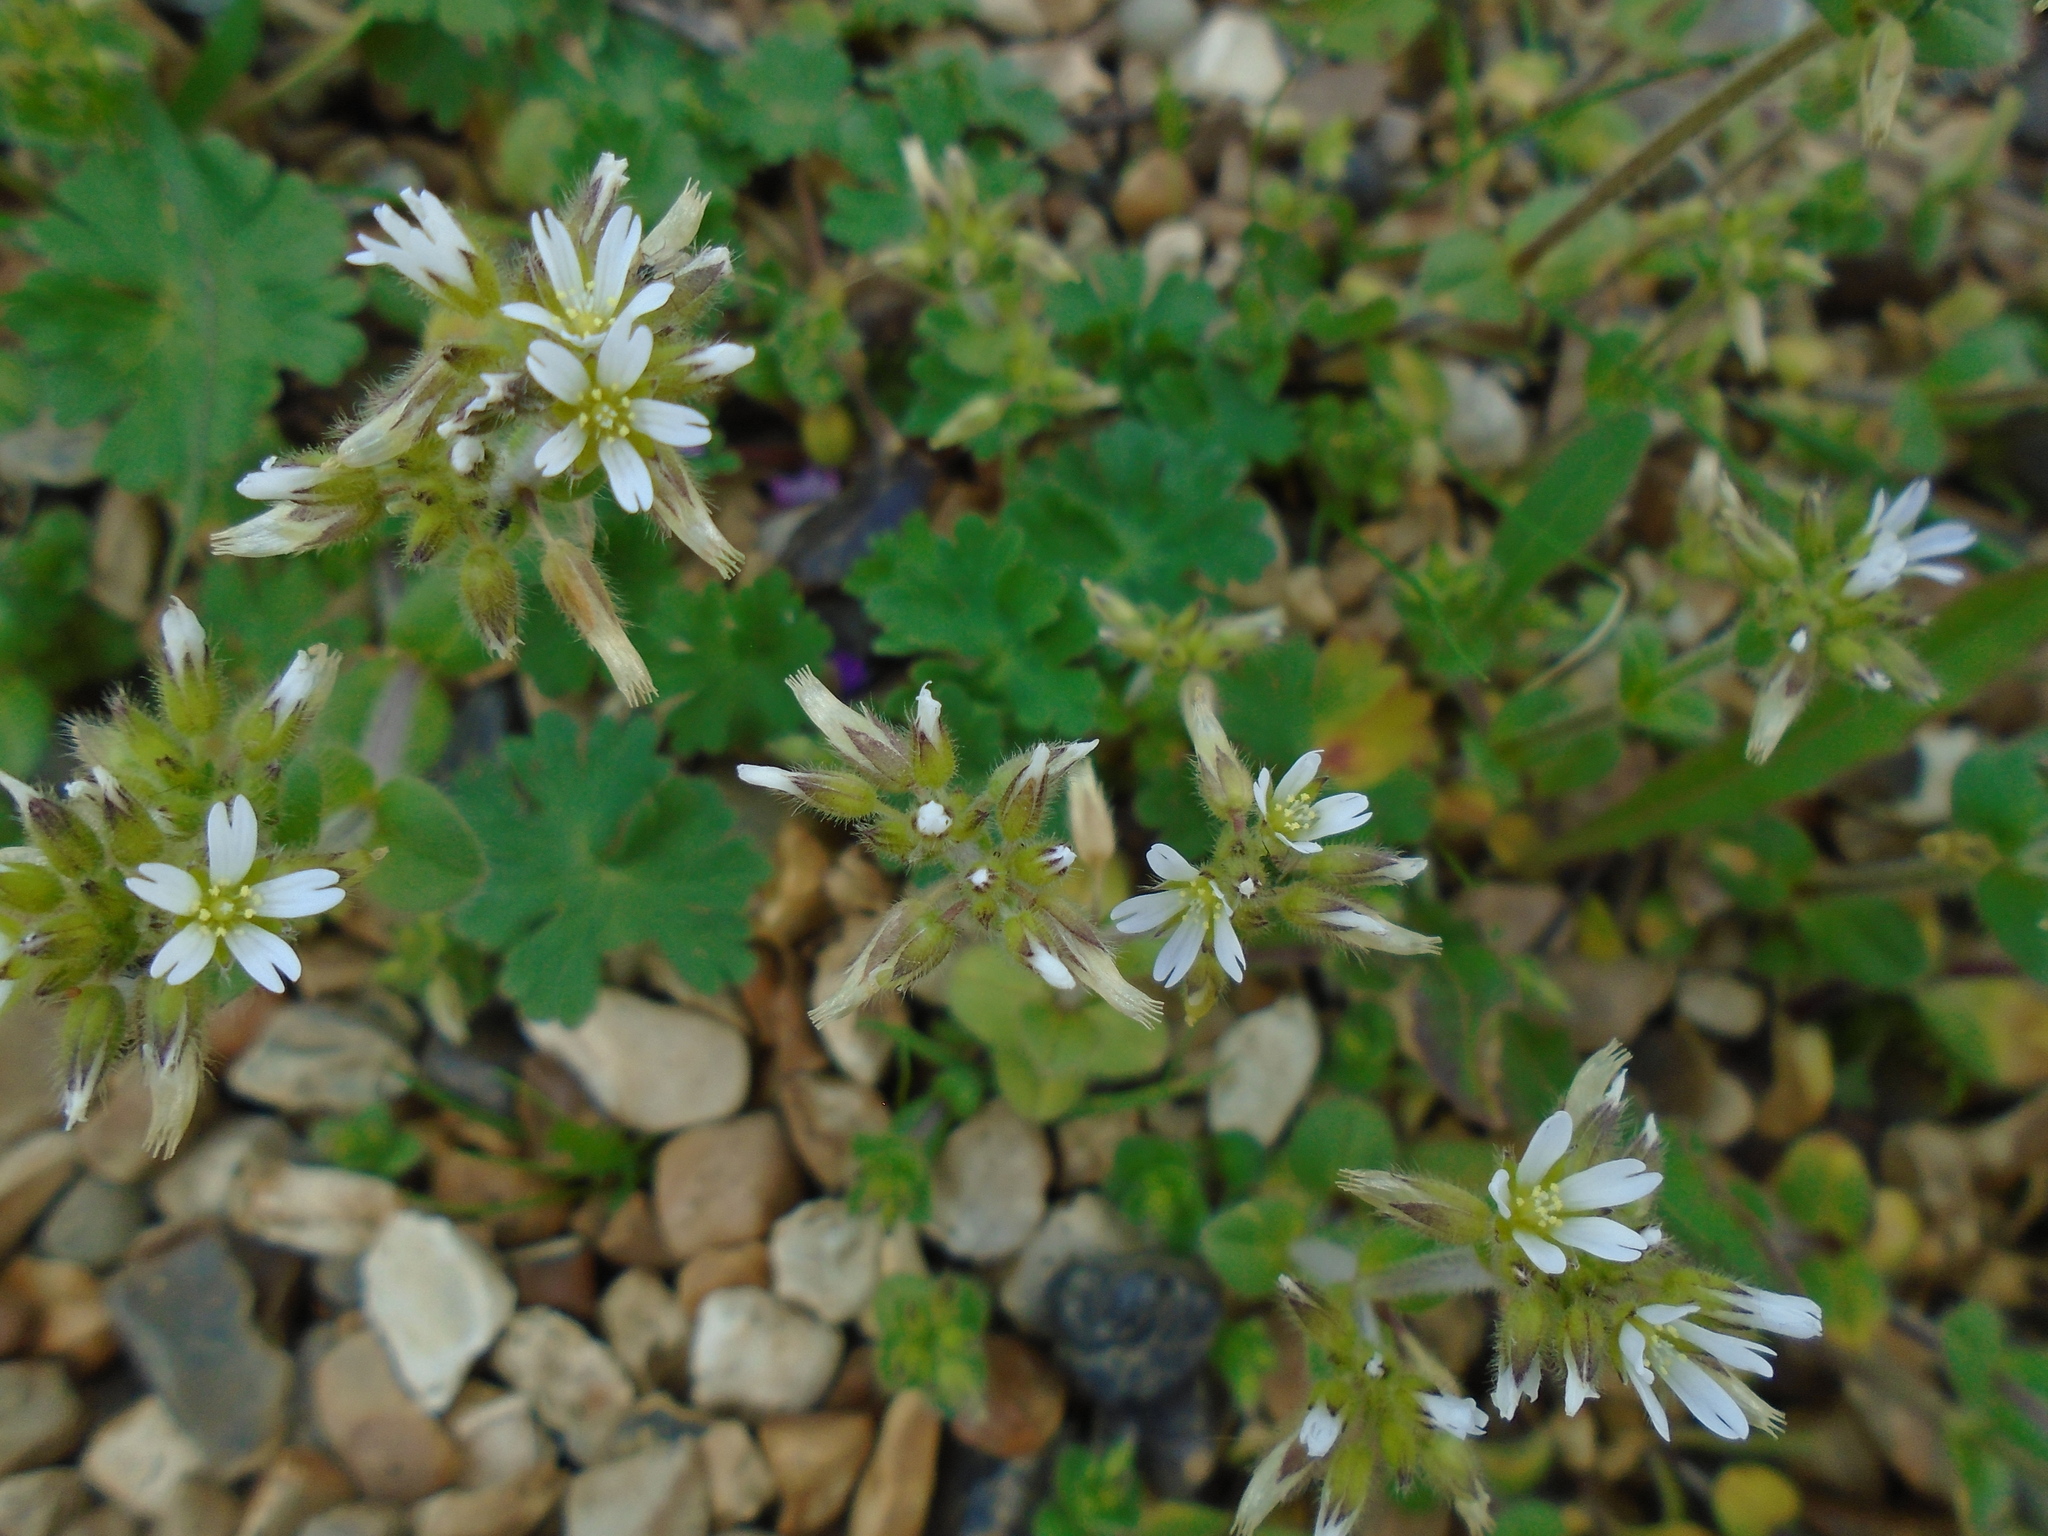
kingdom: Plantae
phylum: Tracheophyta
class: Magnoliopsida
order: Caryophyllales
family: Caryophyllaceae
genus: Cerastium
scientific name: Cerastium glomeratum
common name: Sticky chickweed
